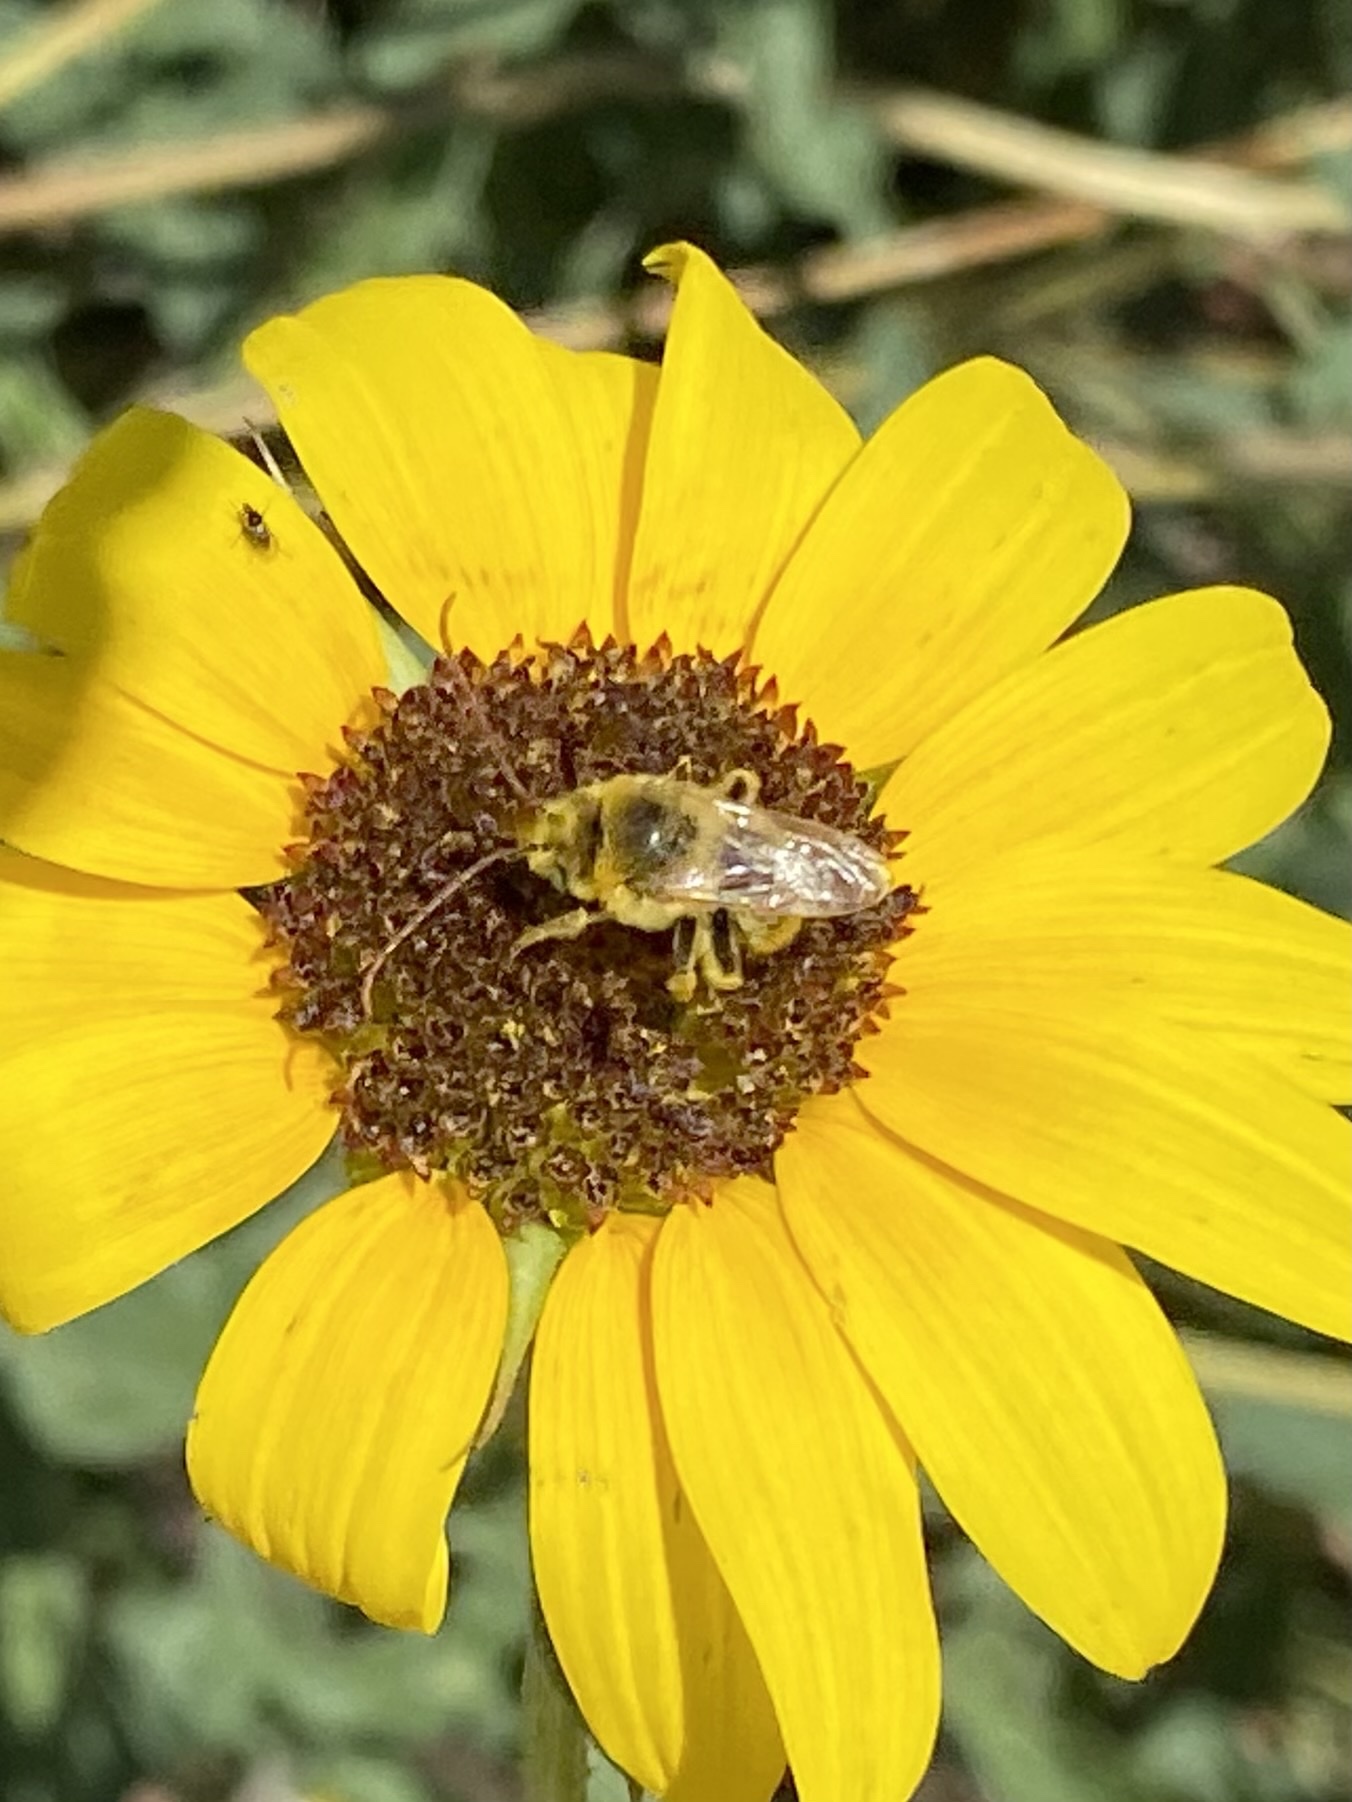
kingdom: Animalia
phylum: Arthropoda
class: Insecta
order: Hymenoptera
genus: Eumelissodes
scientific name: Eumelissodes
